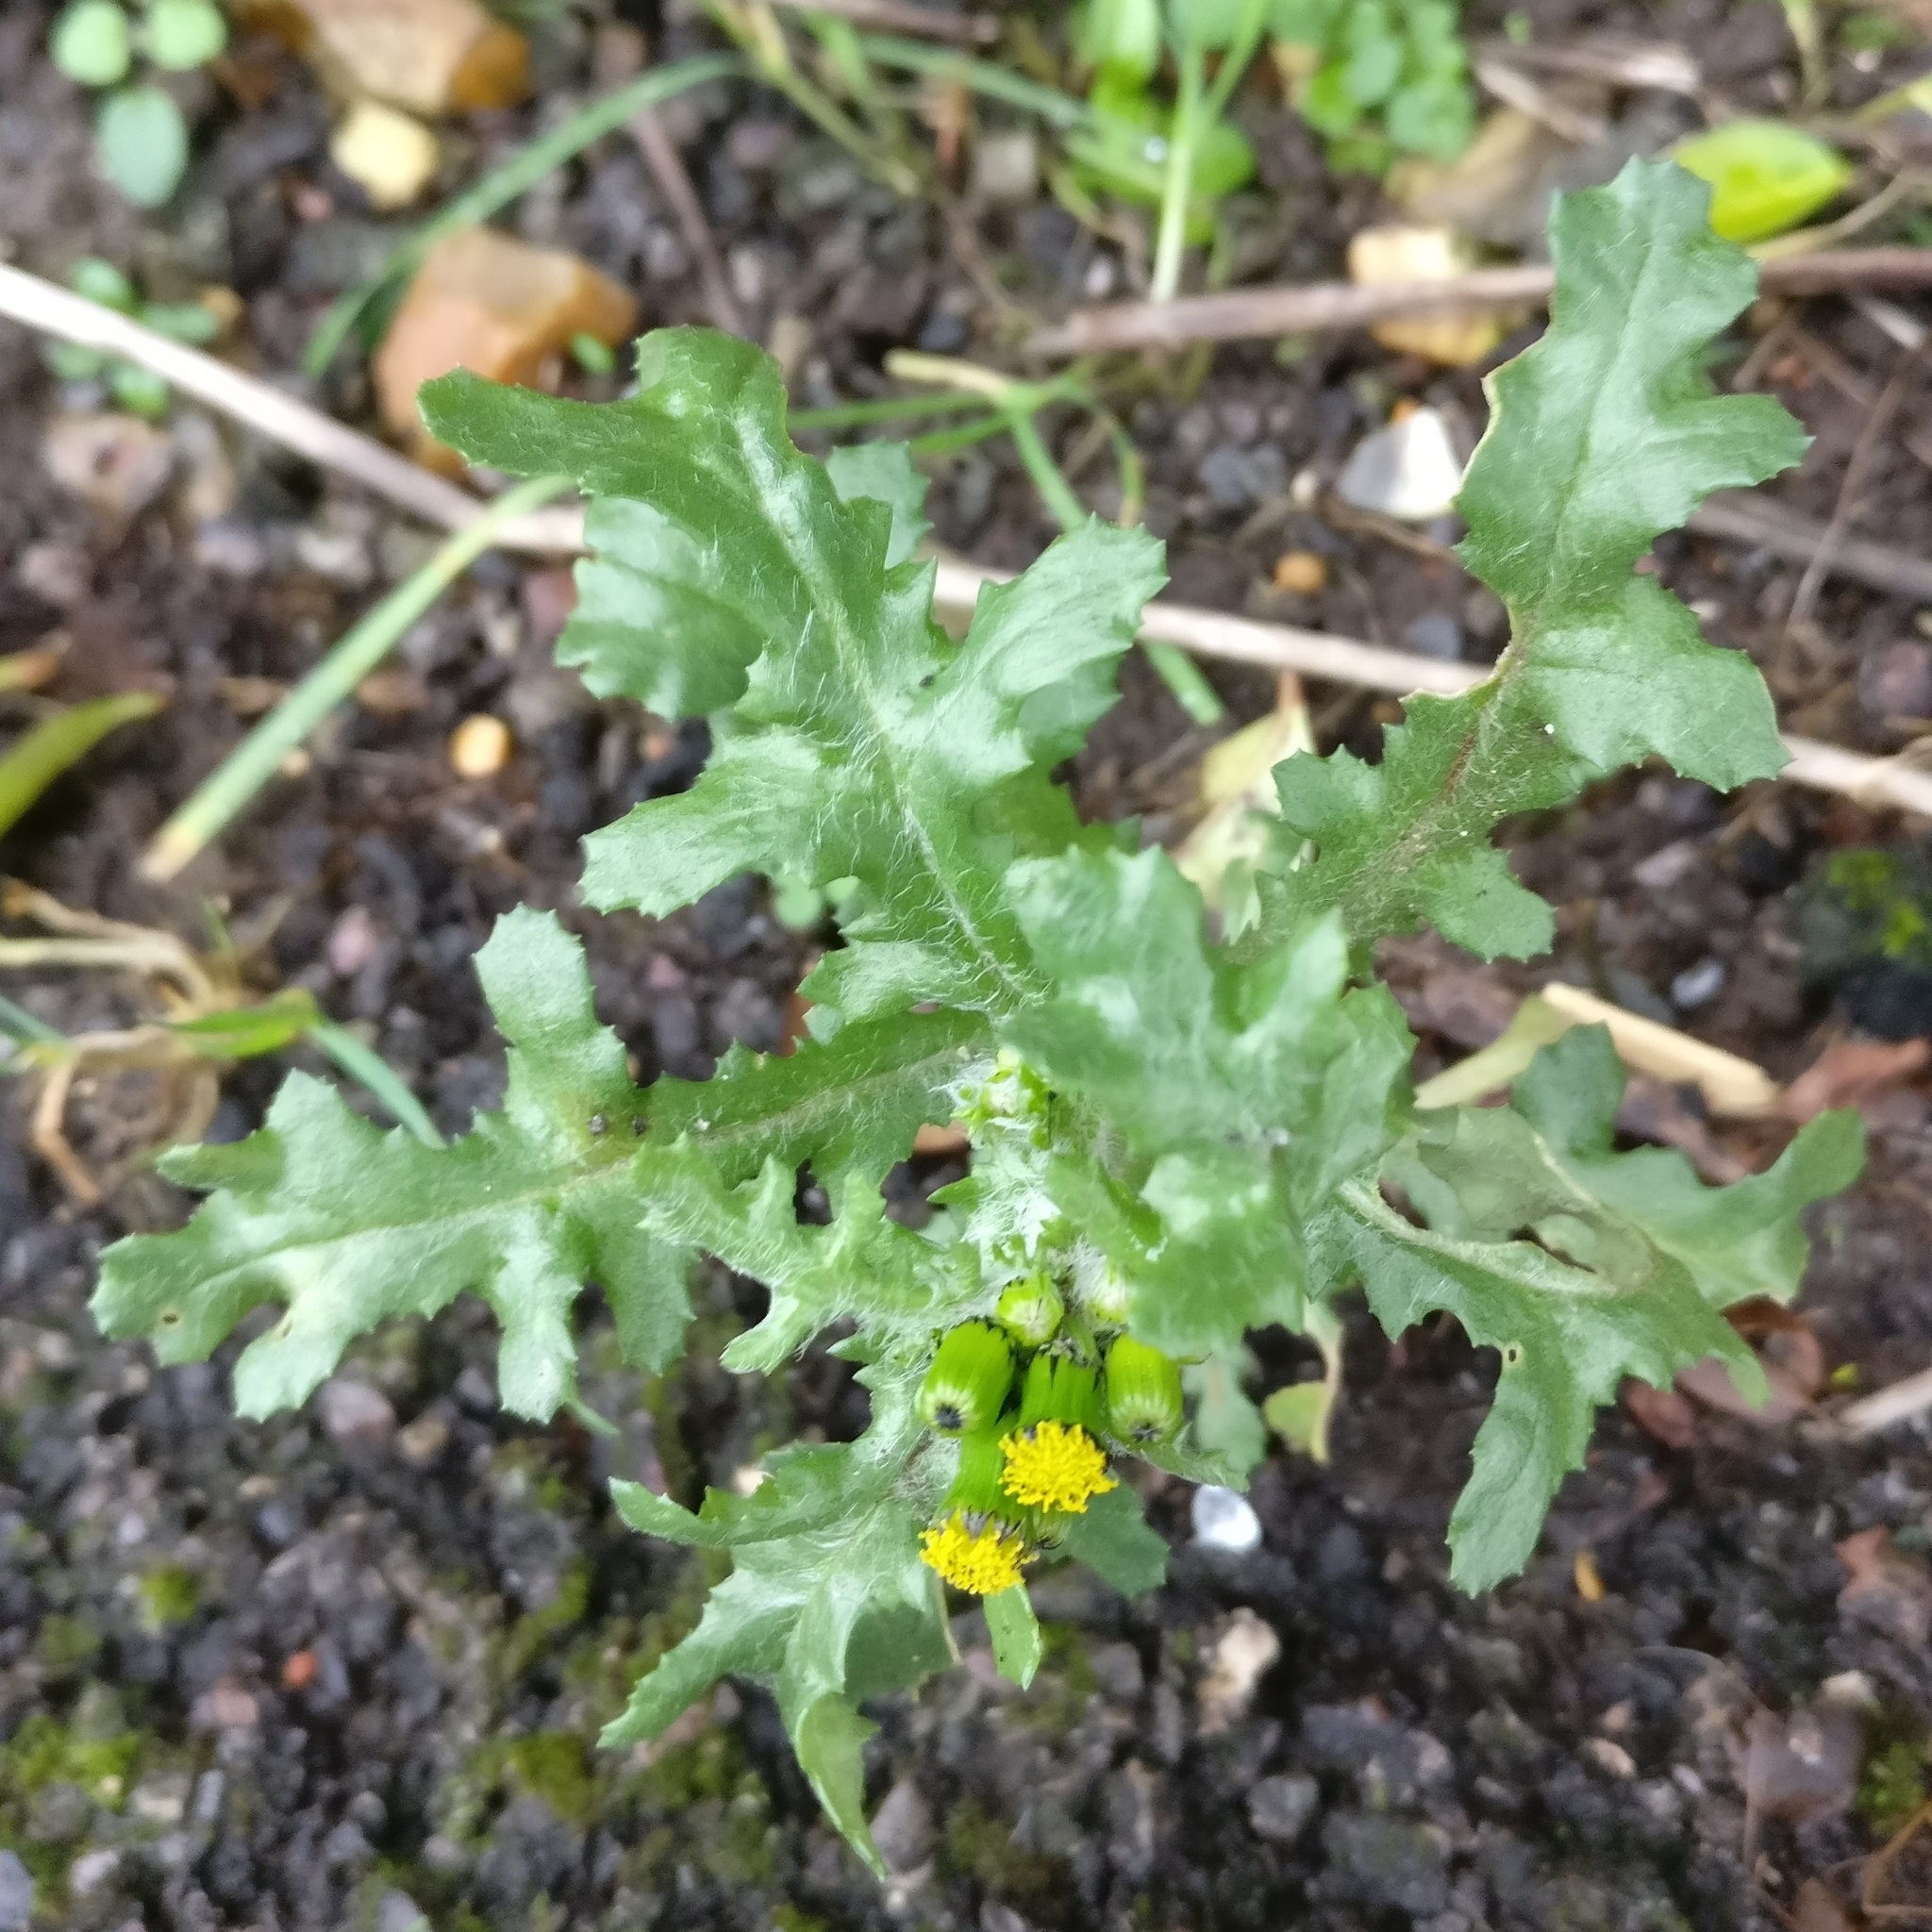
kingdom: Plantae
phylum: Tracheophyta
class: Magnoliopsida
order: Asterales
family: Asteraceae
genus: Senecio
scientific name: Senecio vulgaris
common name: Old-man-in-the-spring
